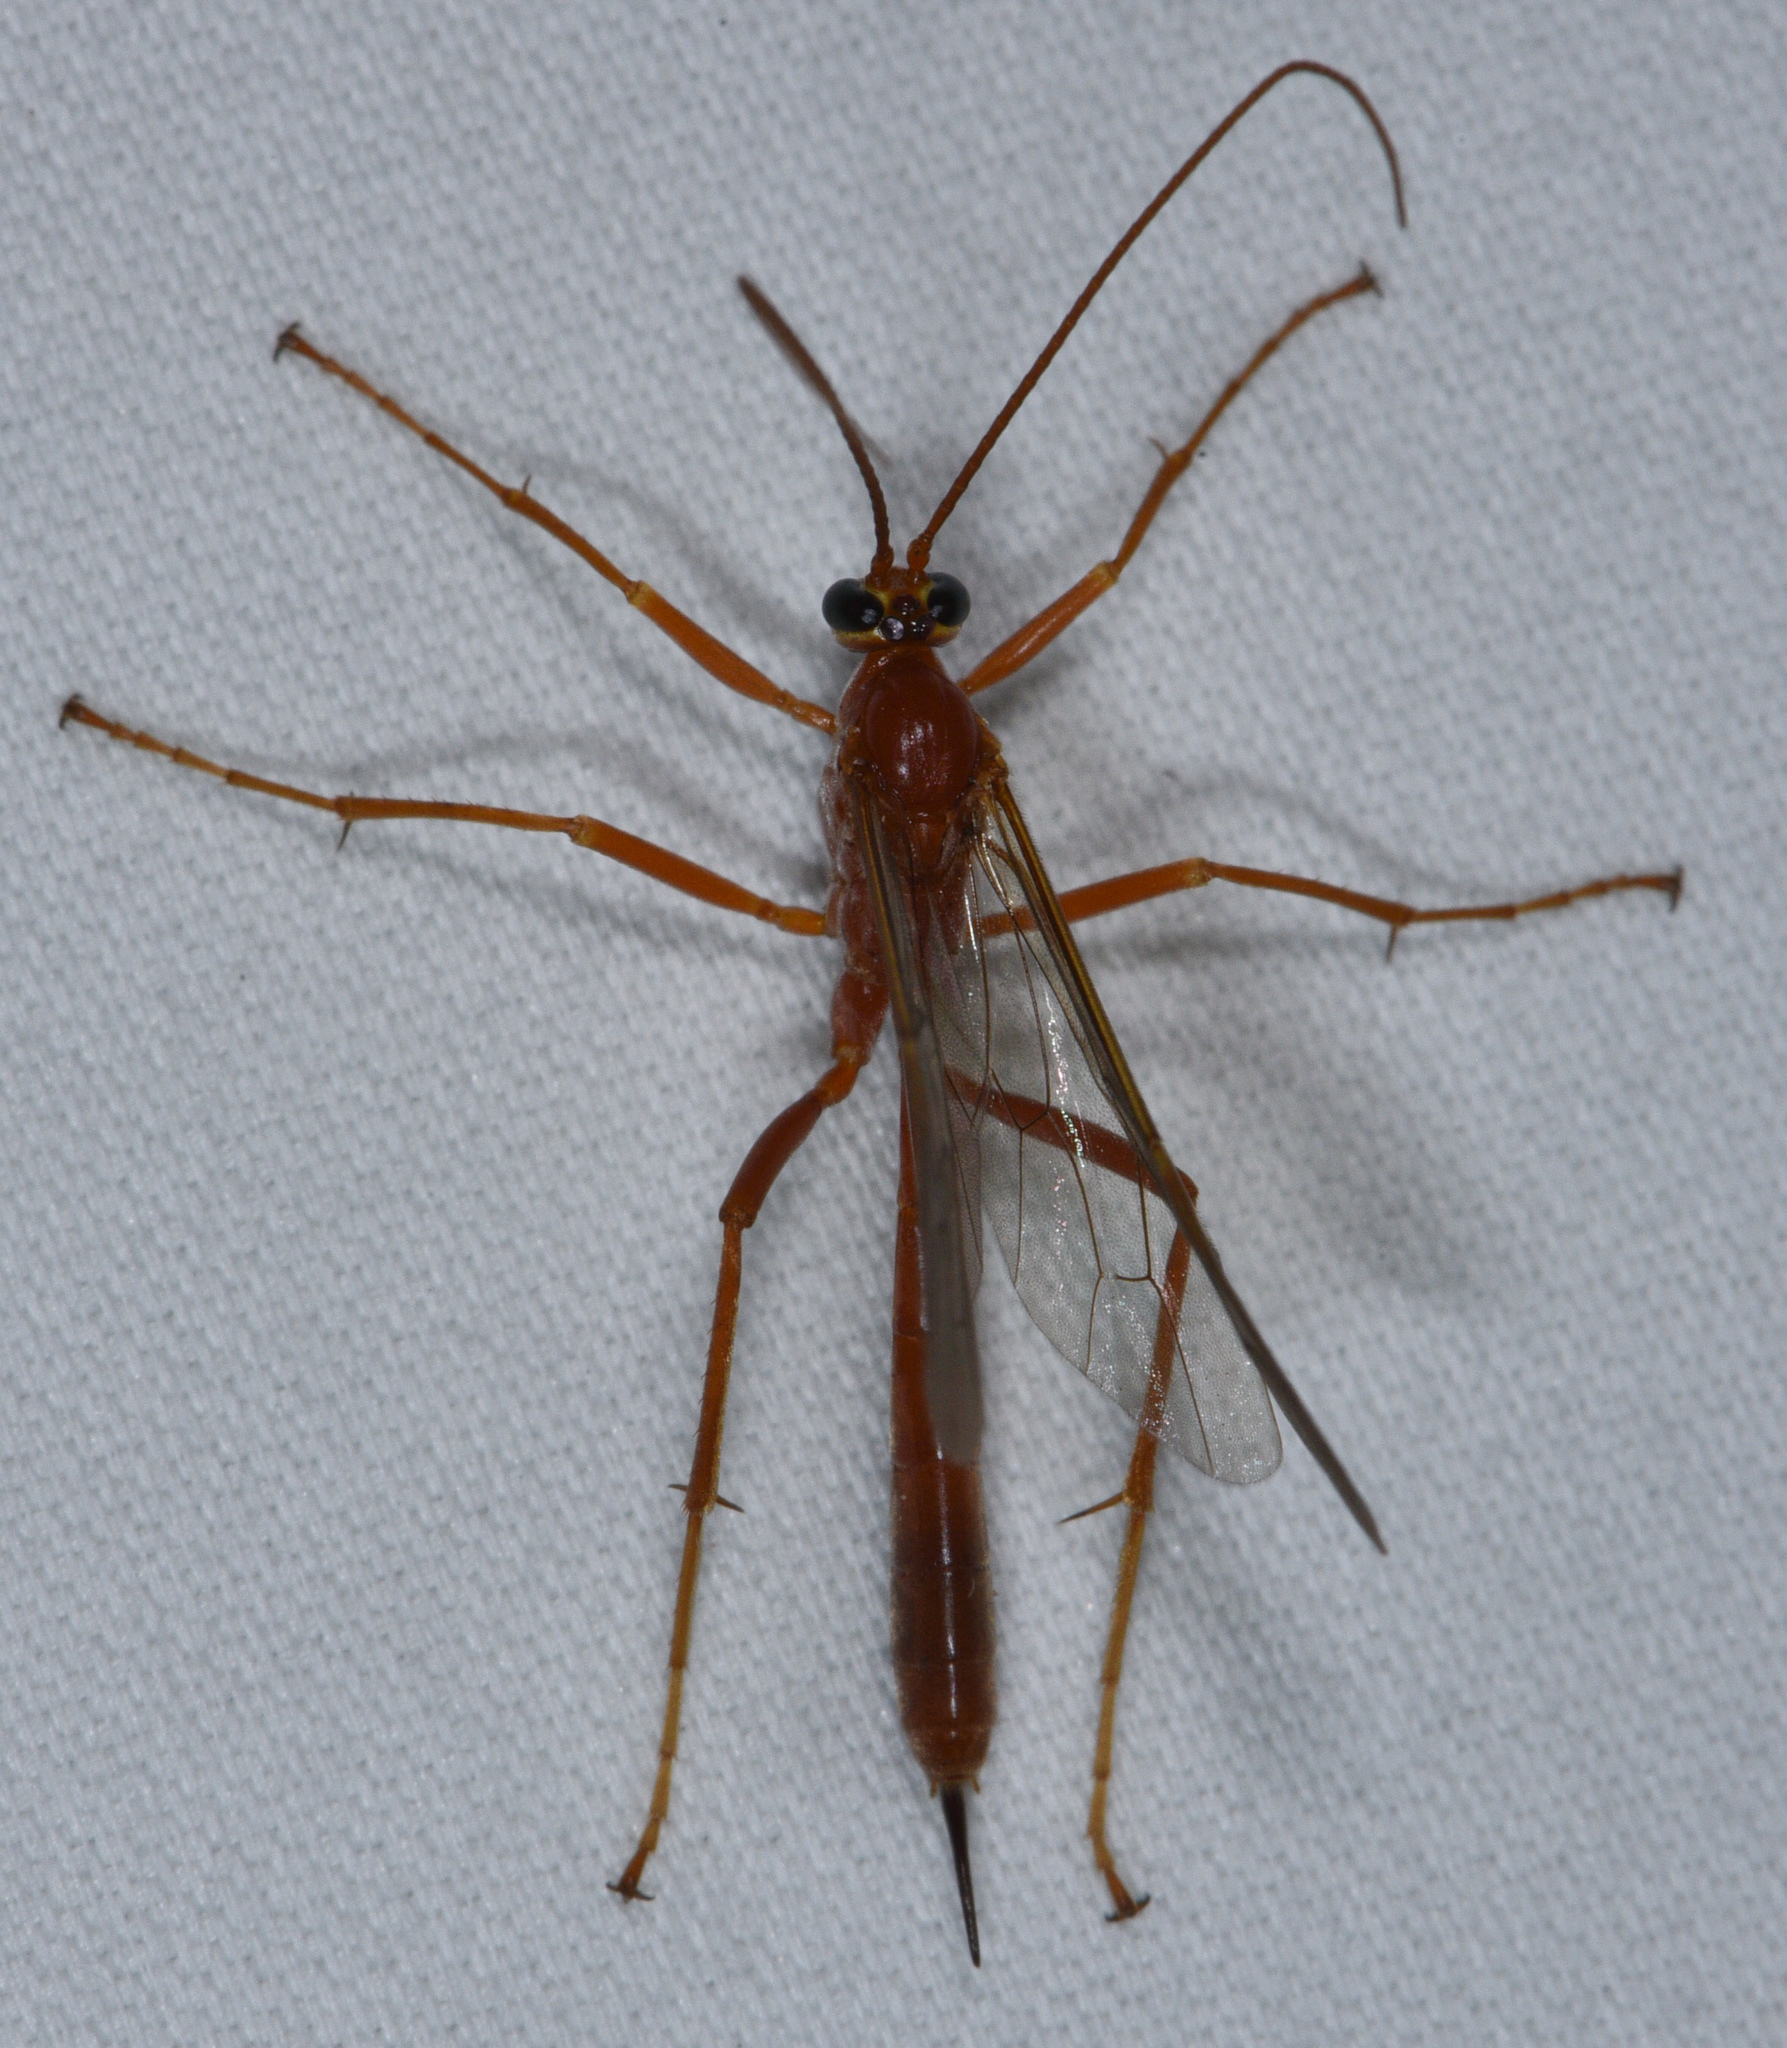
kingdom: Animalia
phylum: Arthropoda
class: Insecta
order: Hymenoptera
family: Ichneumonidae
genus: Netelia
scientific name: Netelia
